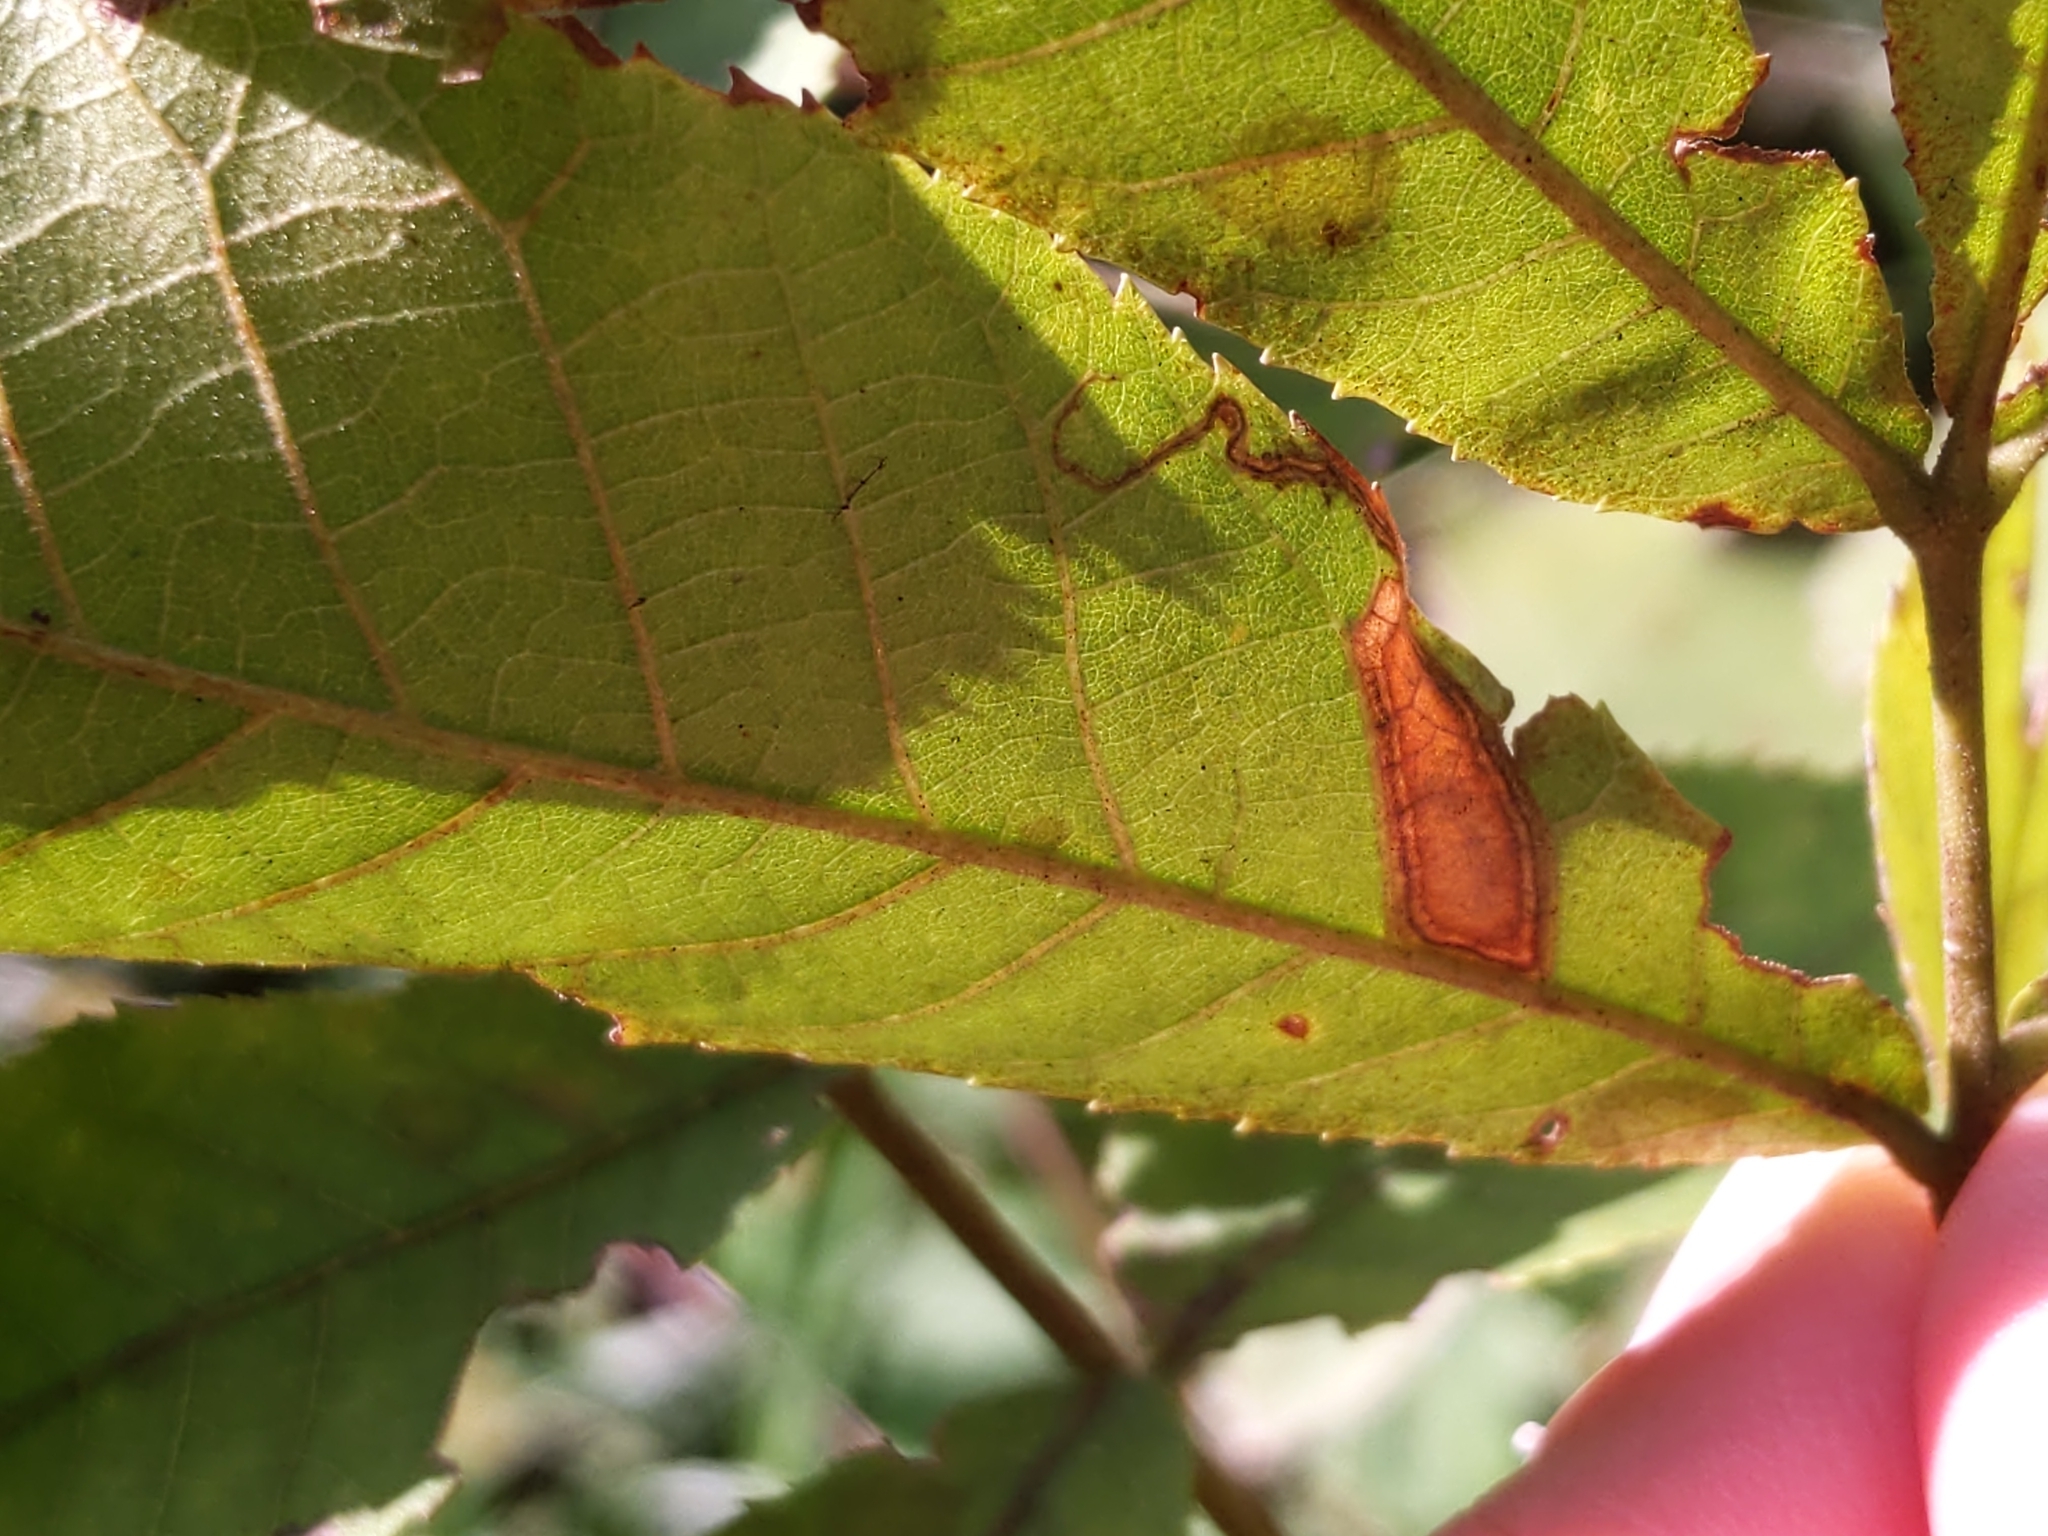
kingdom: Animalia
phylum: Arthropoda
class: Insecta
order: Lepidoptera
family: Nepticulidae
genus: Stigmella
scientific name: Stigmella caryaefoliella
